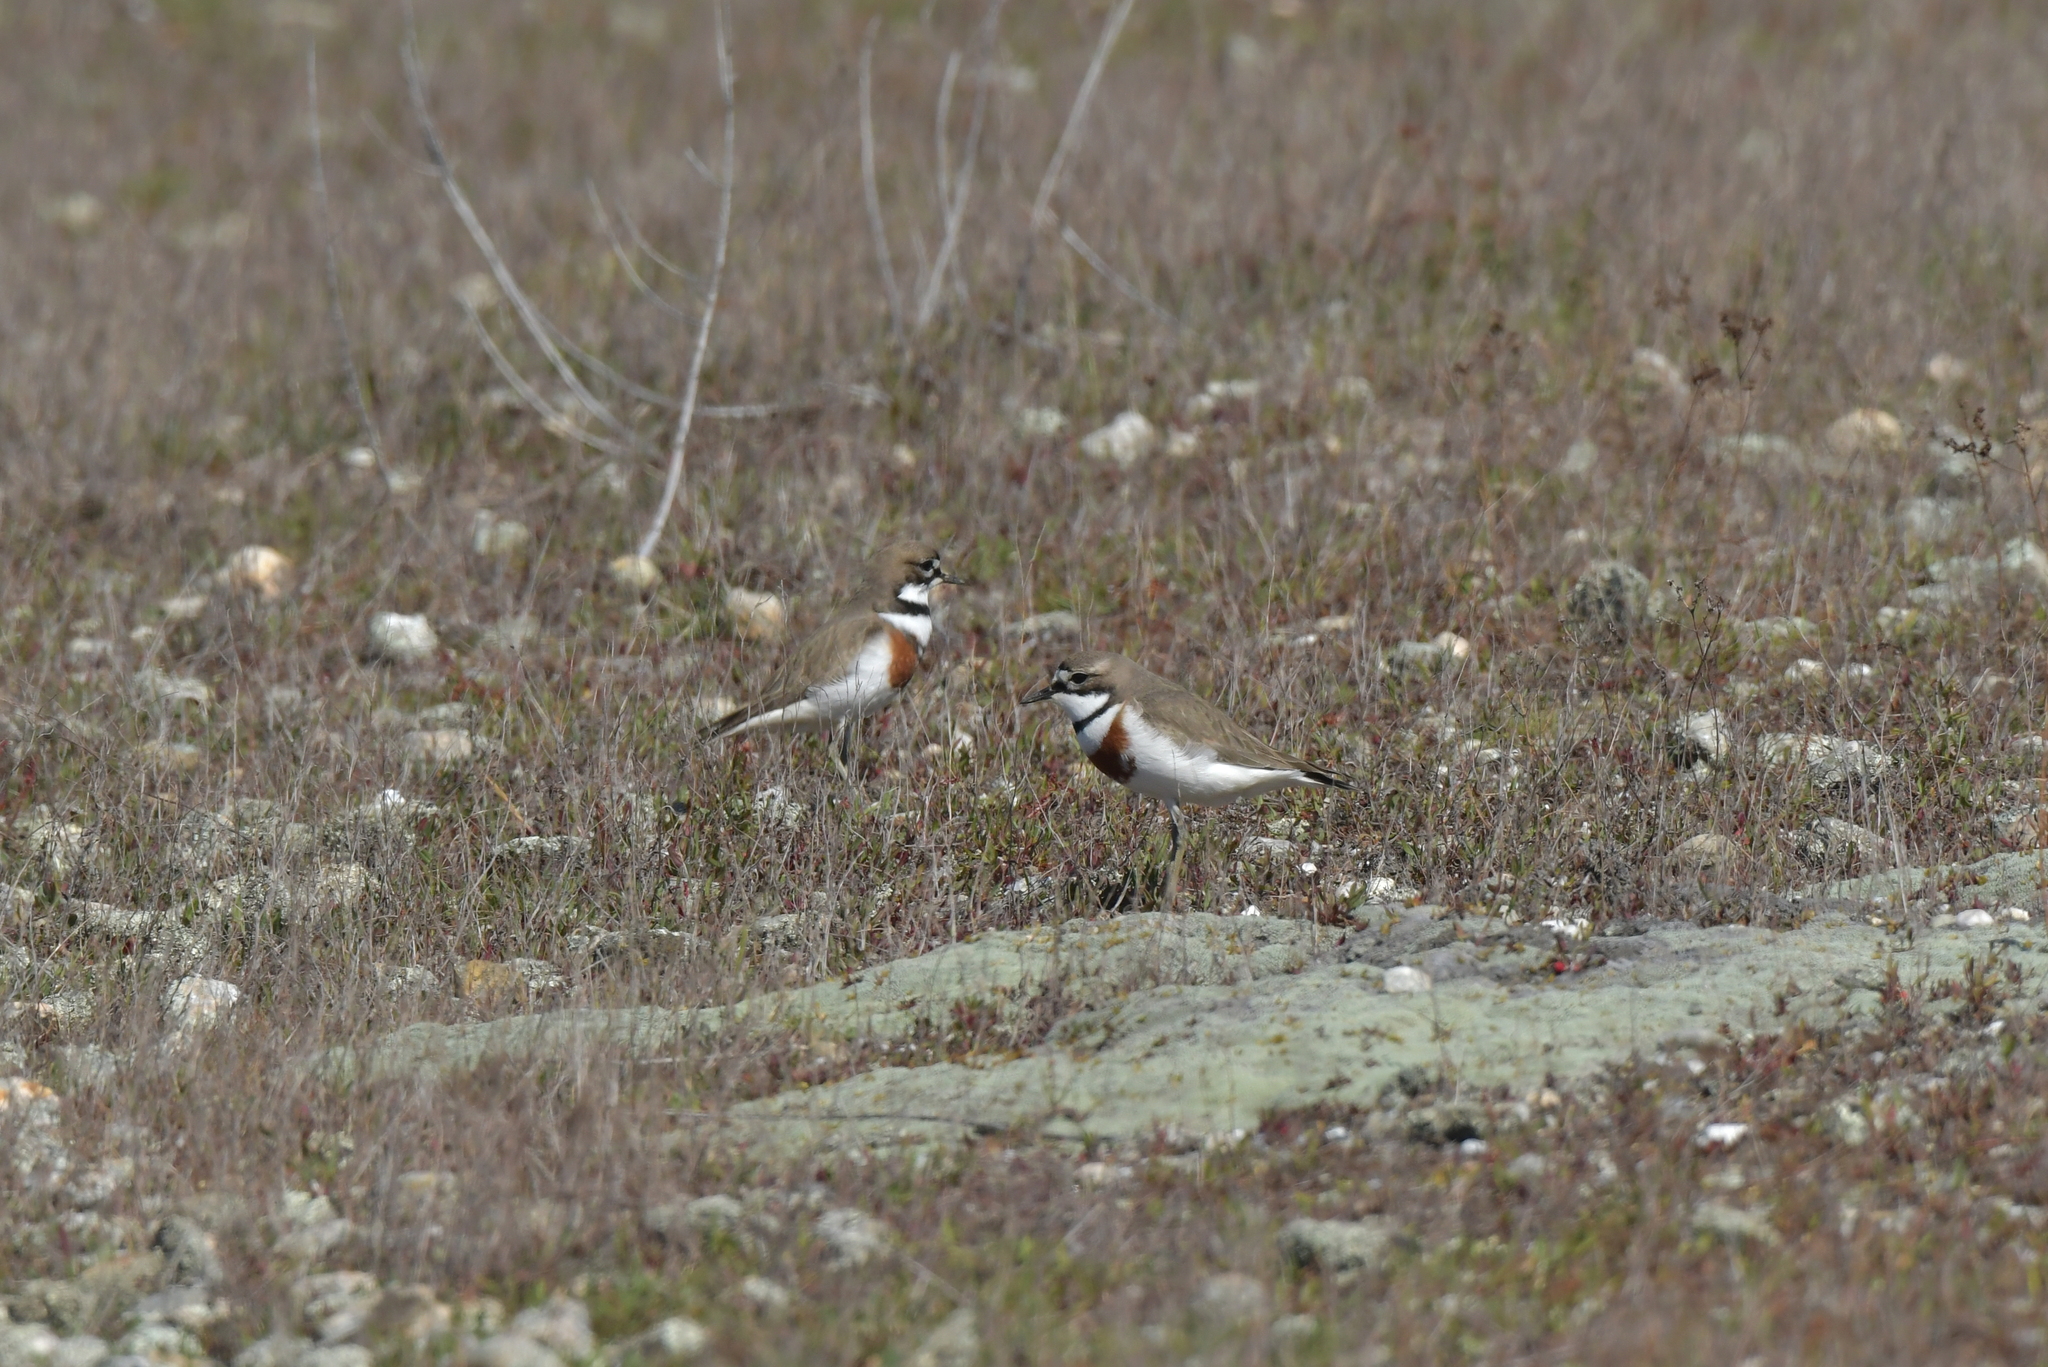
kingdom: Animalia
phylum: Chordata
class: Aves
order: Charadriiformes
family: Charadriidae
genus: Anarhynchus
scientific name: Anarhynchus
